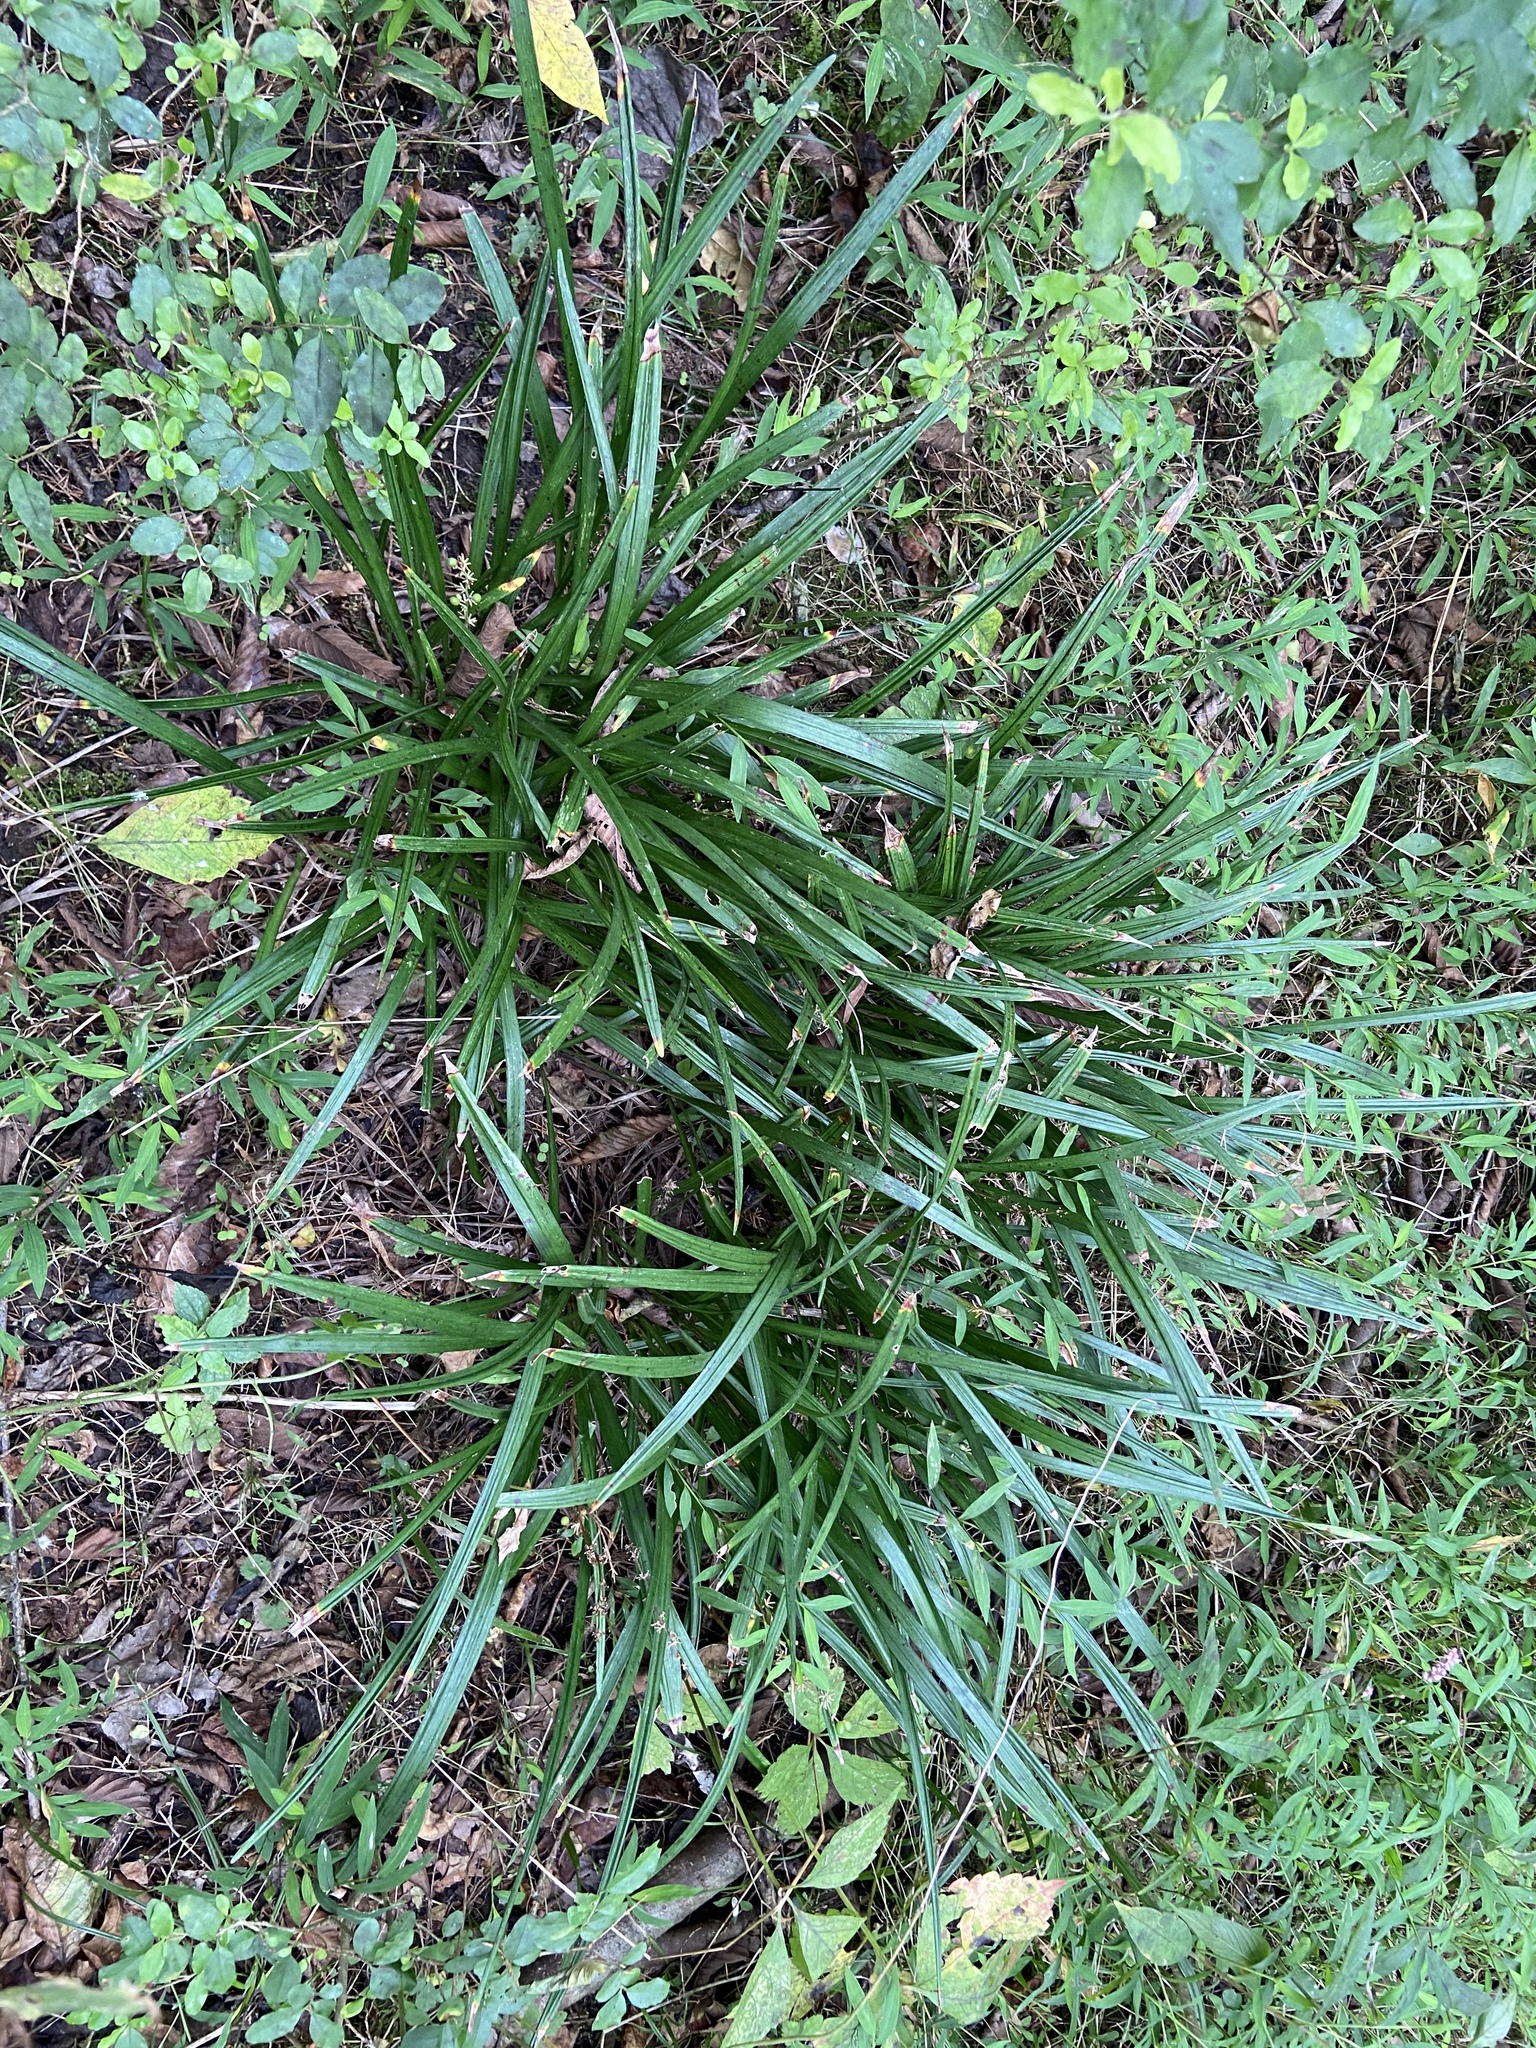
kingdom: Plantae
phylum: Tracheophyta
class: Liliopsida
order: Asparagales
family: Asparagaceae
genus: Liriope
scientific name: Liriope muscari
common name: Big blue lilyturf
